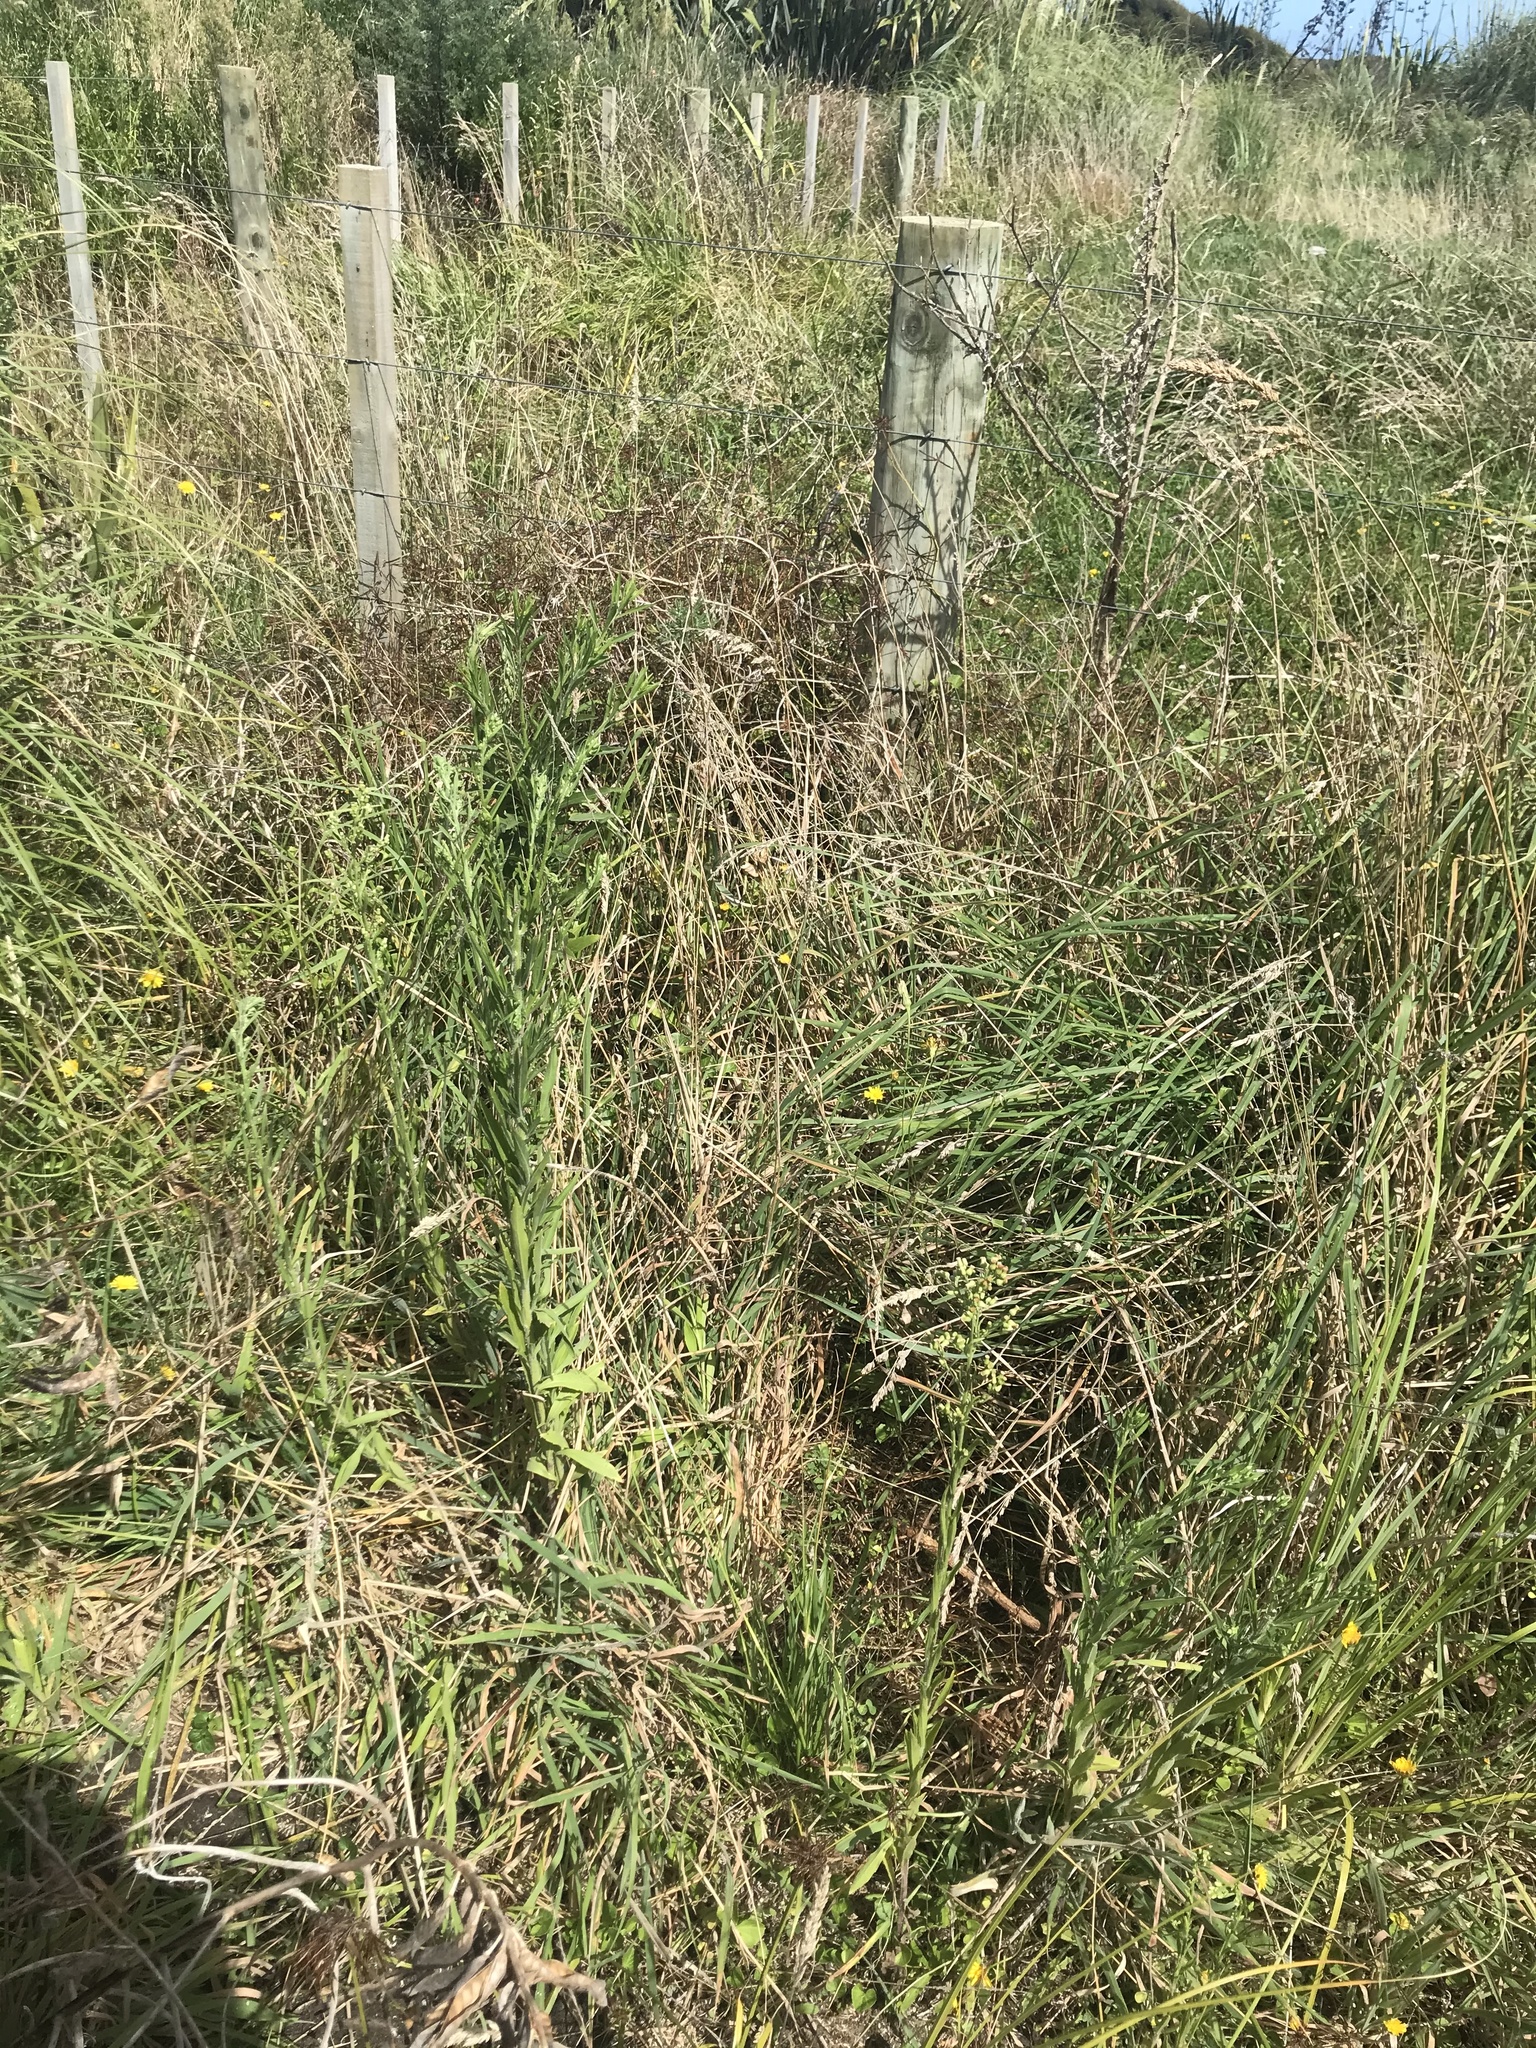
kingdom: Plantae
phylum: Tracheophyta
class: Liliopsida
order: Poales
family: Cyperaceae
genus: Schoenoplectus
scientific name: Schoenoplectus pungens
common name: Sharp club-rush
